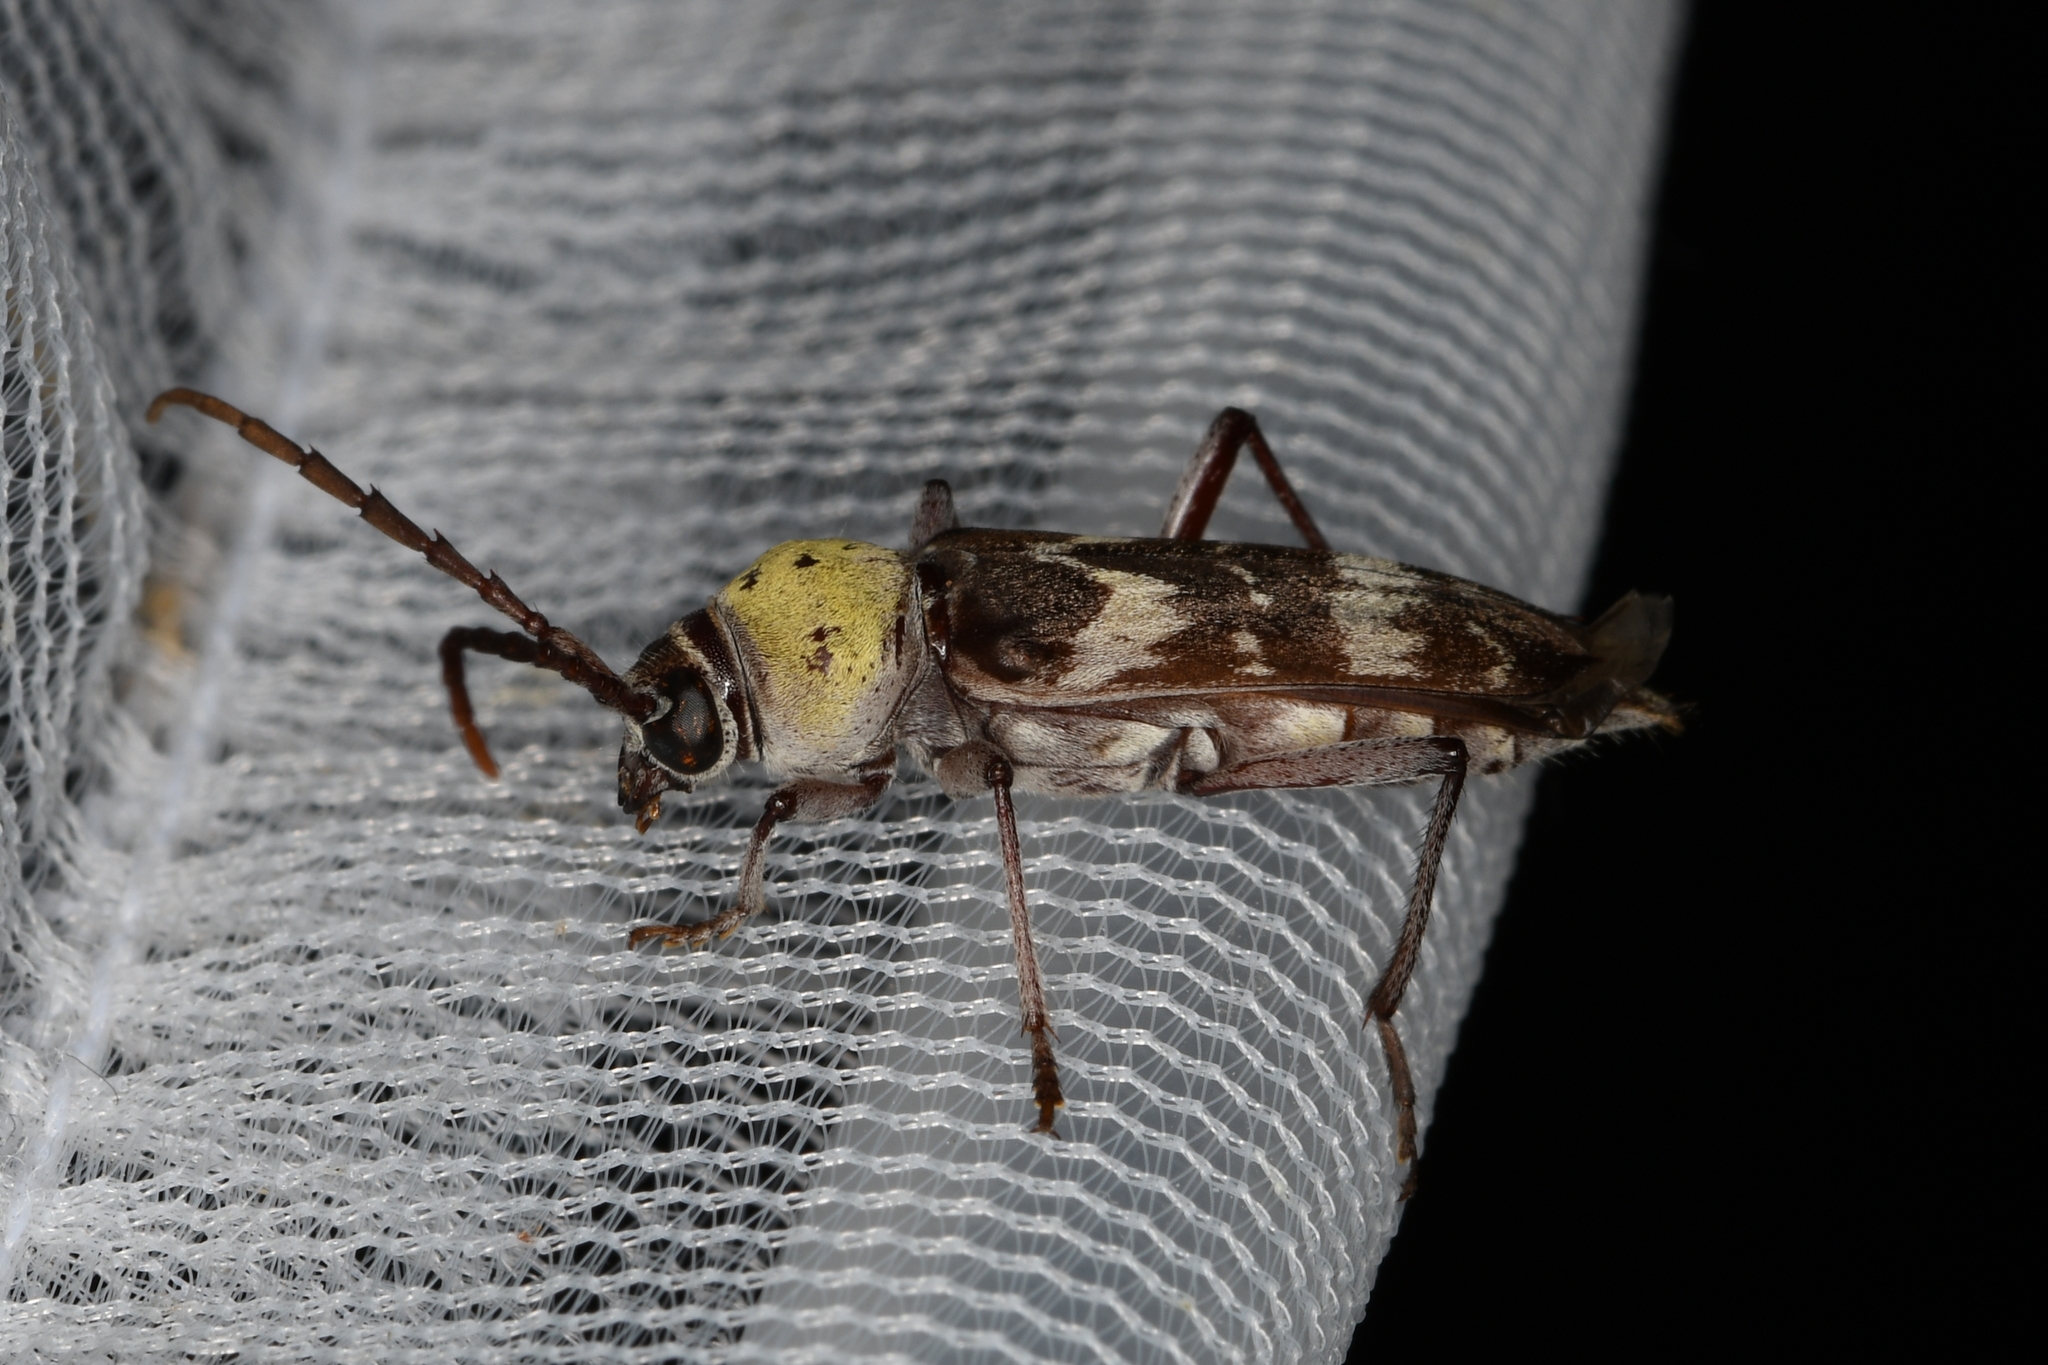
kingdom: Animalia
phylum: Arthropoda
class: Insecta
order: Coleoptera
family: Cerambycidae
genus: Megacyllene
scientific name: Megacyllene antennata
